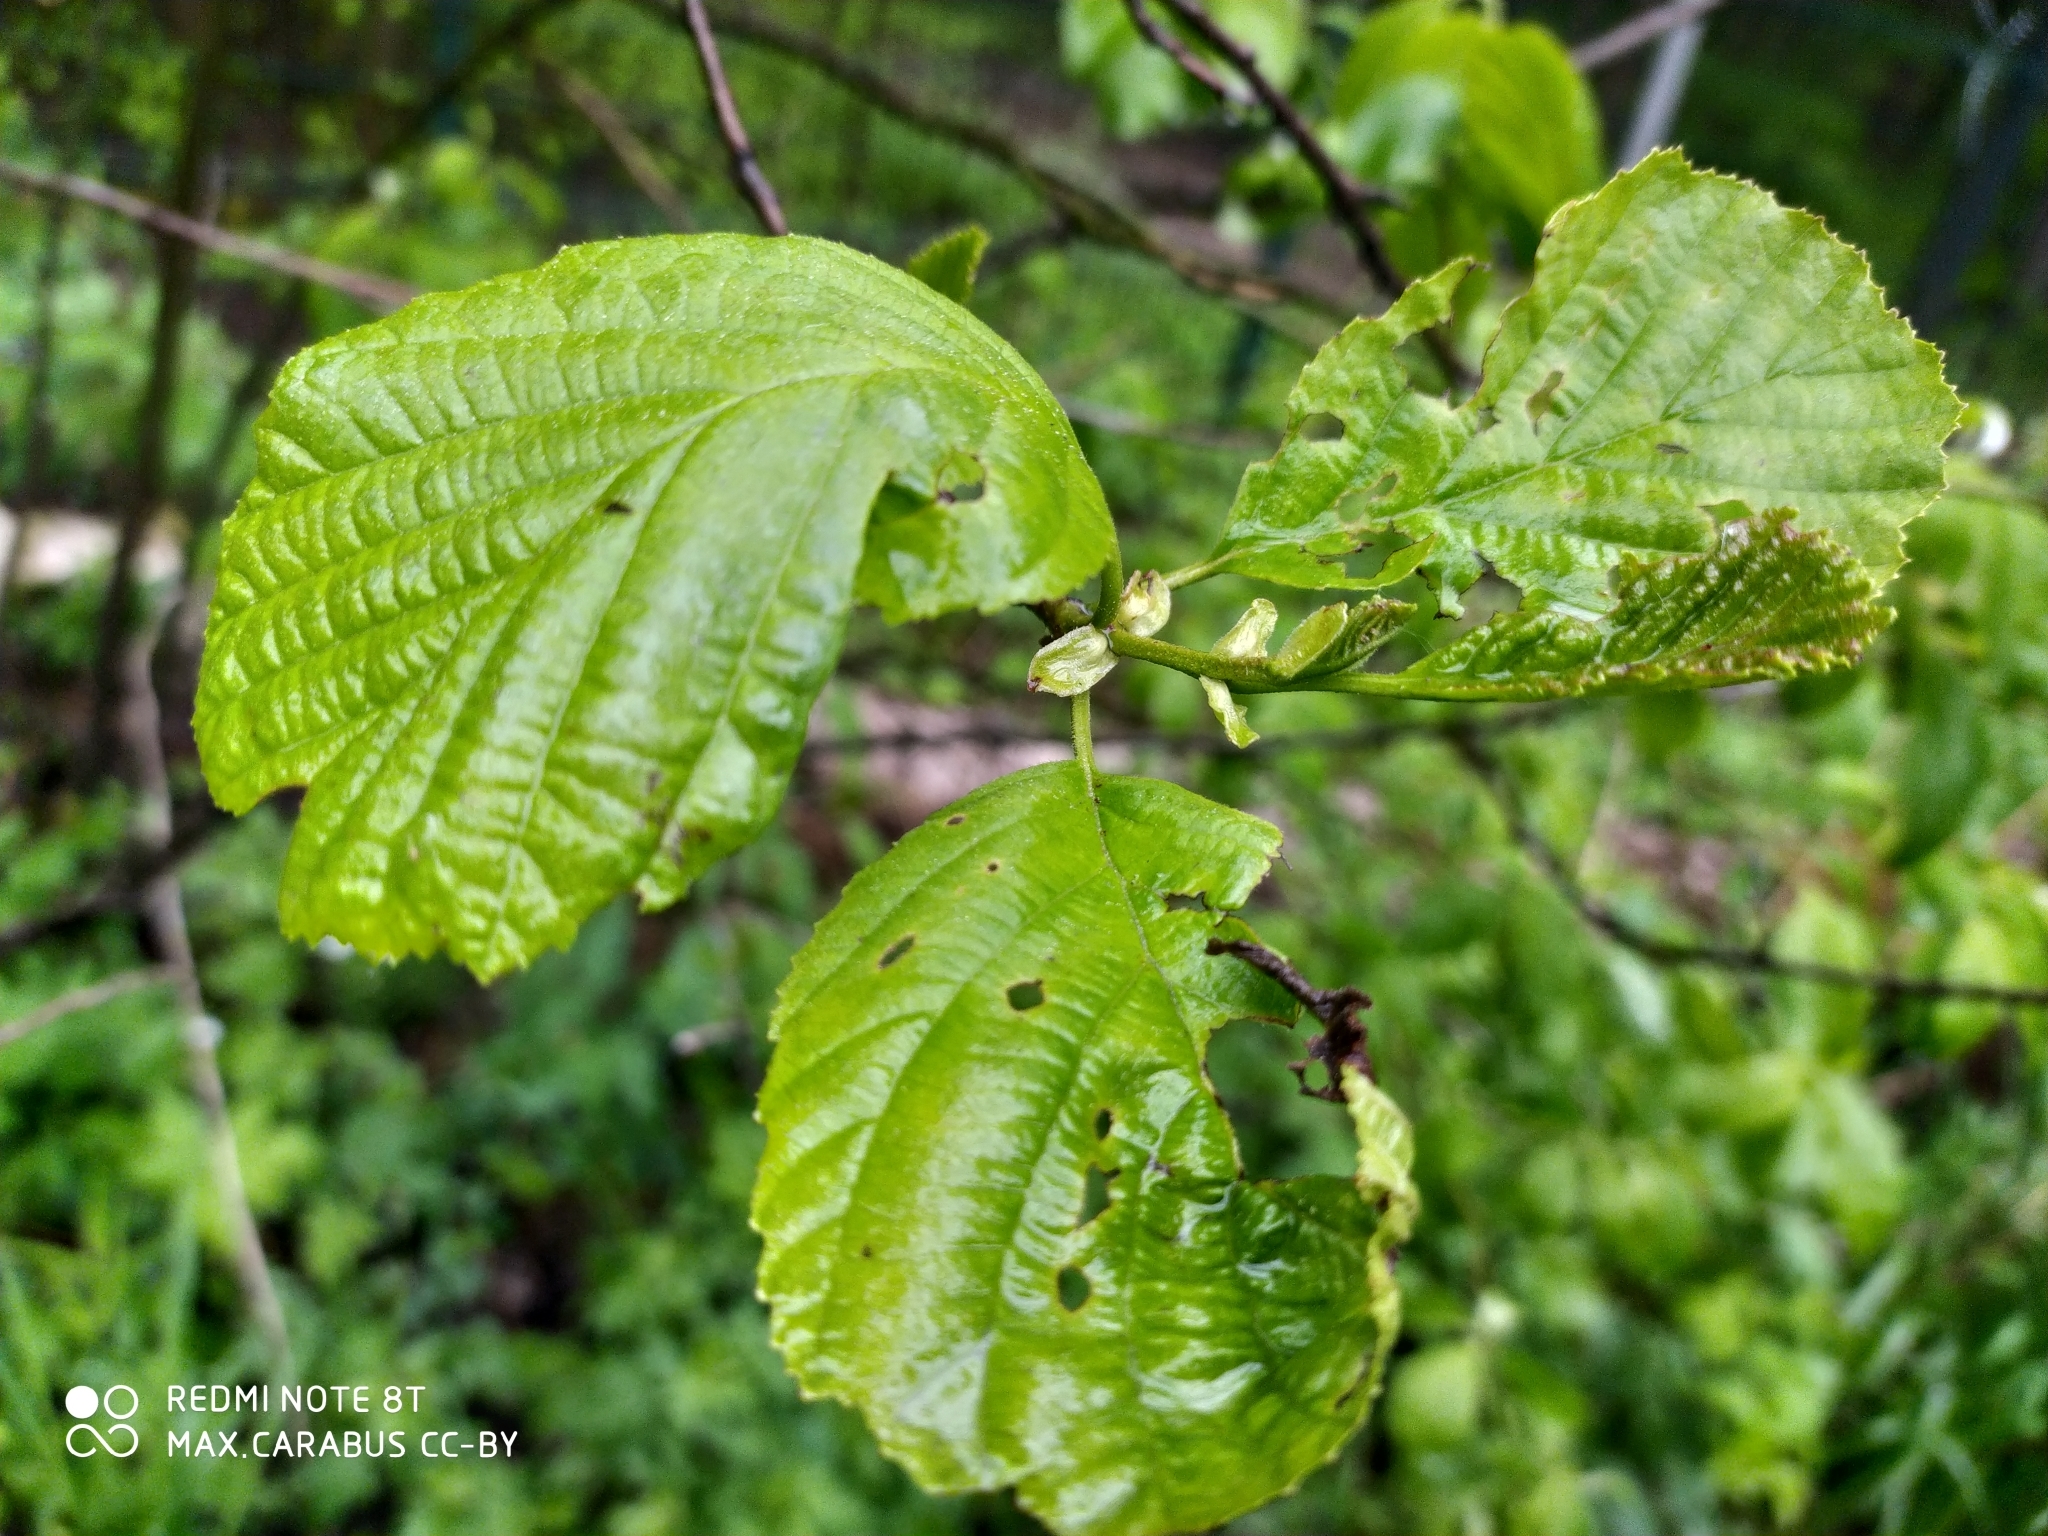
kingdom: Plantae
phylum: Tracheophyta
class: Magnoliopsida
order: Fagales
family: Betulaceae
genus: Alnus
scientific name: Alnus glutinosa
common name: Black alder
